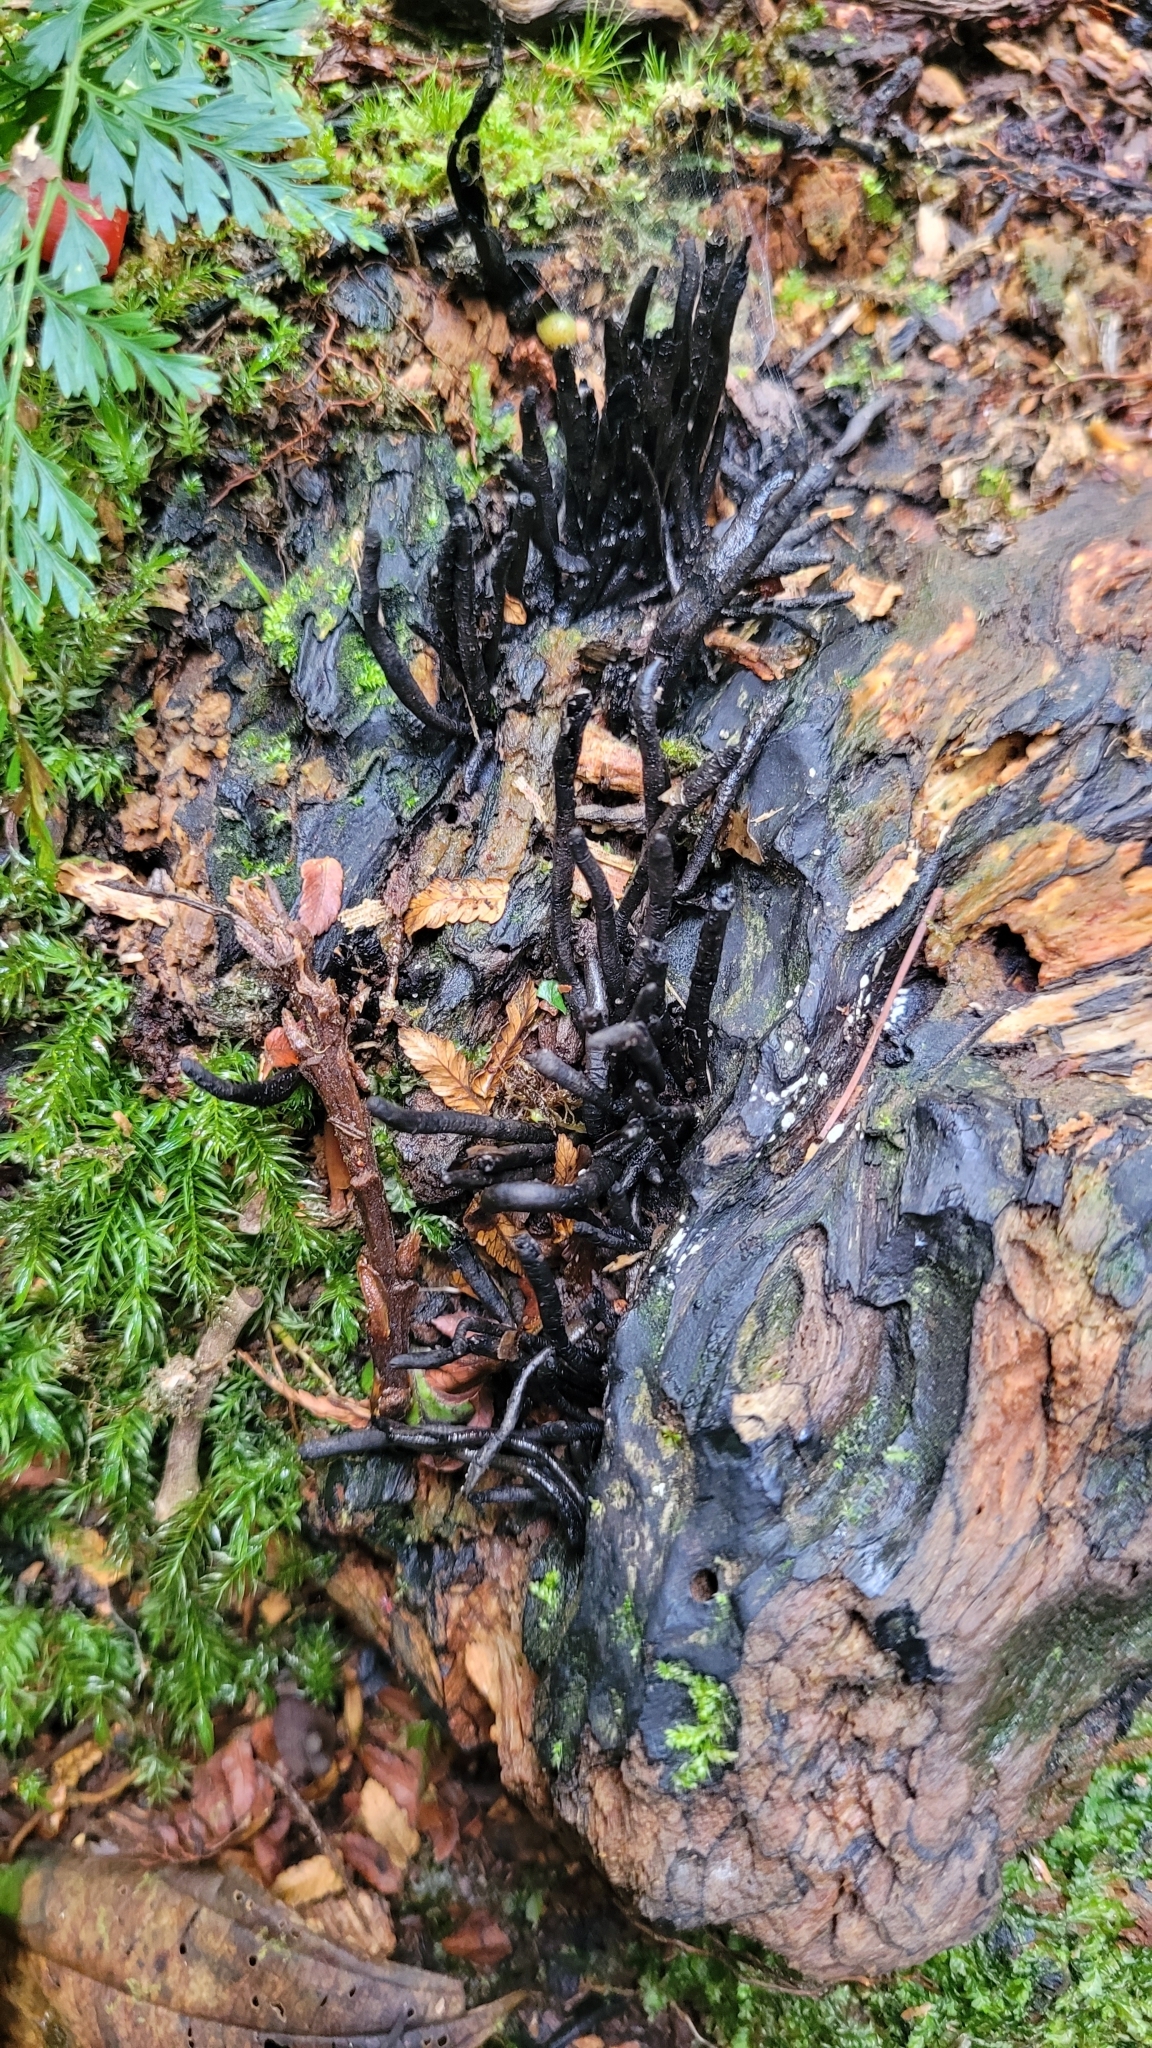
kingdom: Fungi
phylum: Ascomycota
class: Sordariomycetes
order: Xylariales
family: Xylariaceae
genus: Xylaria
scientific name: Xylaria hypoxylon
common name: Candle-snuff fungus
